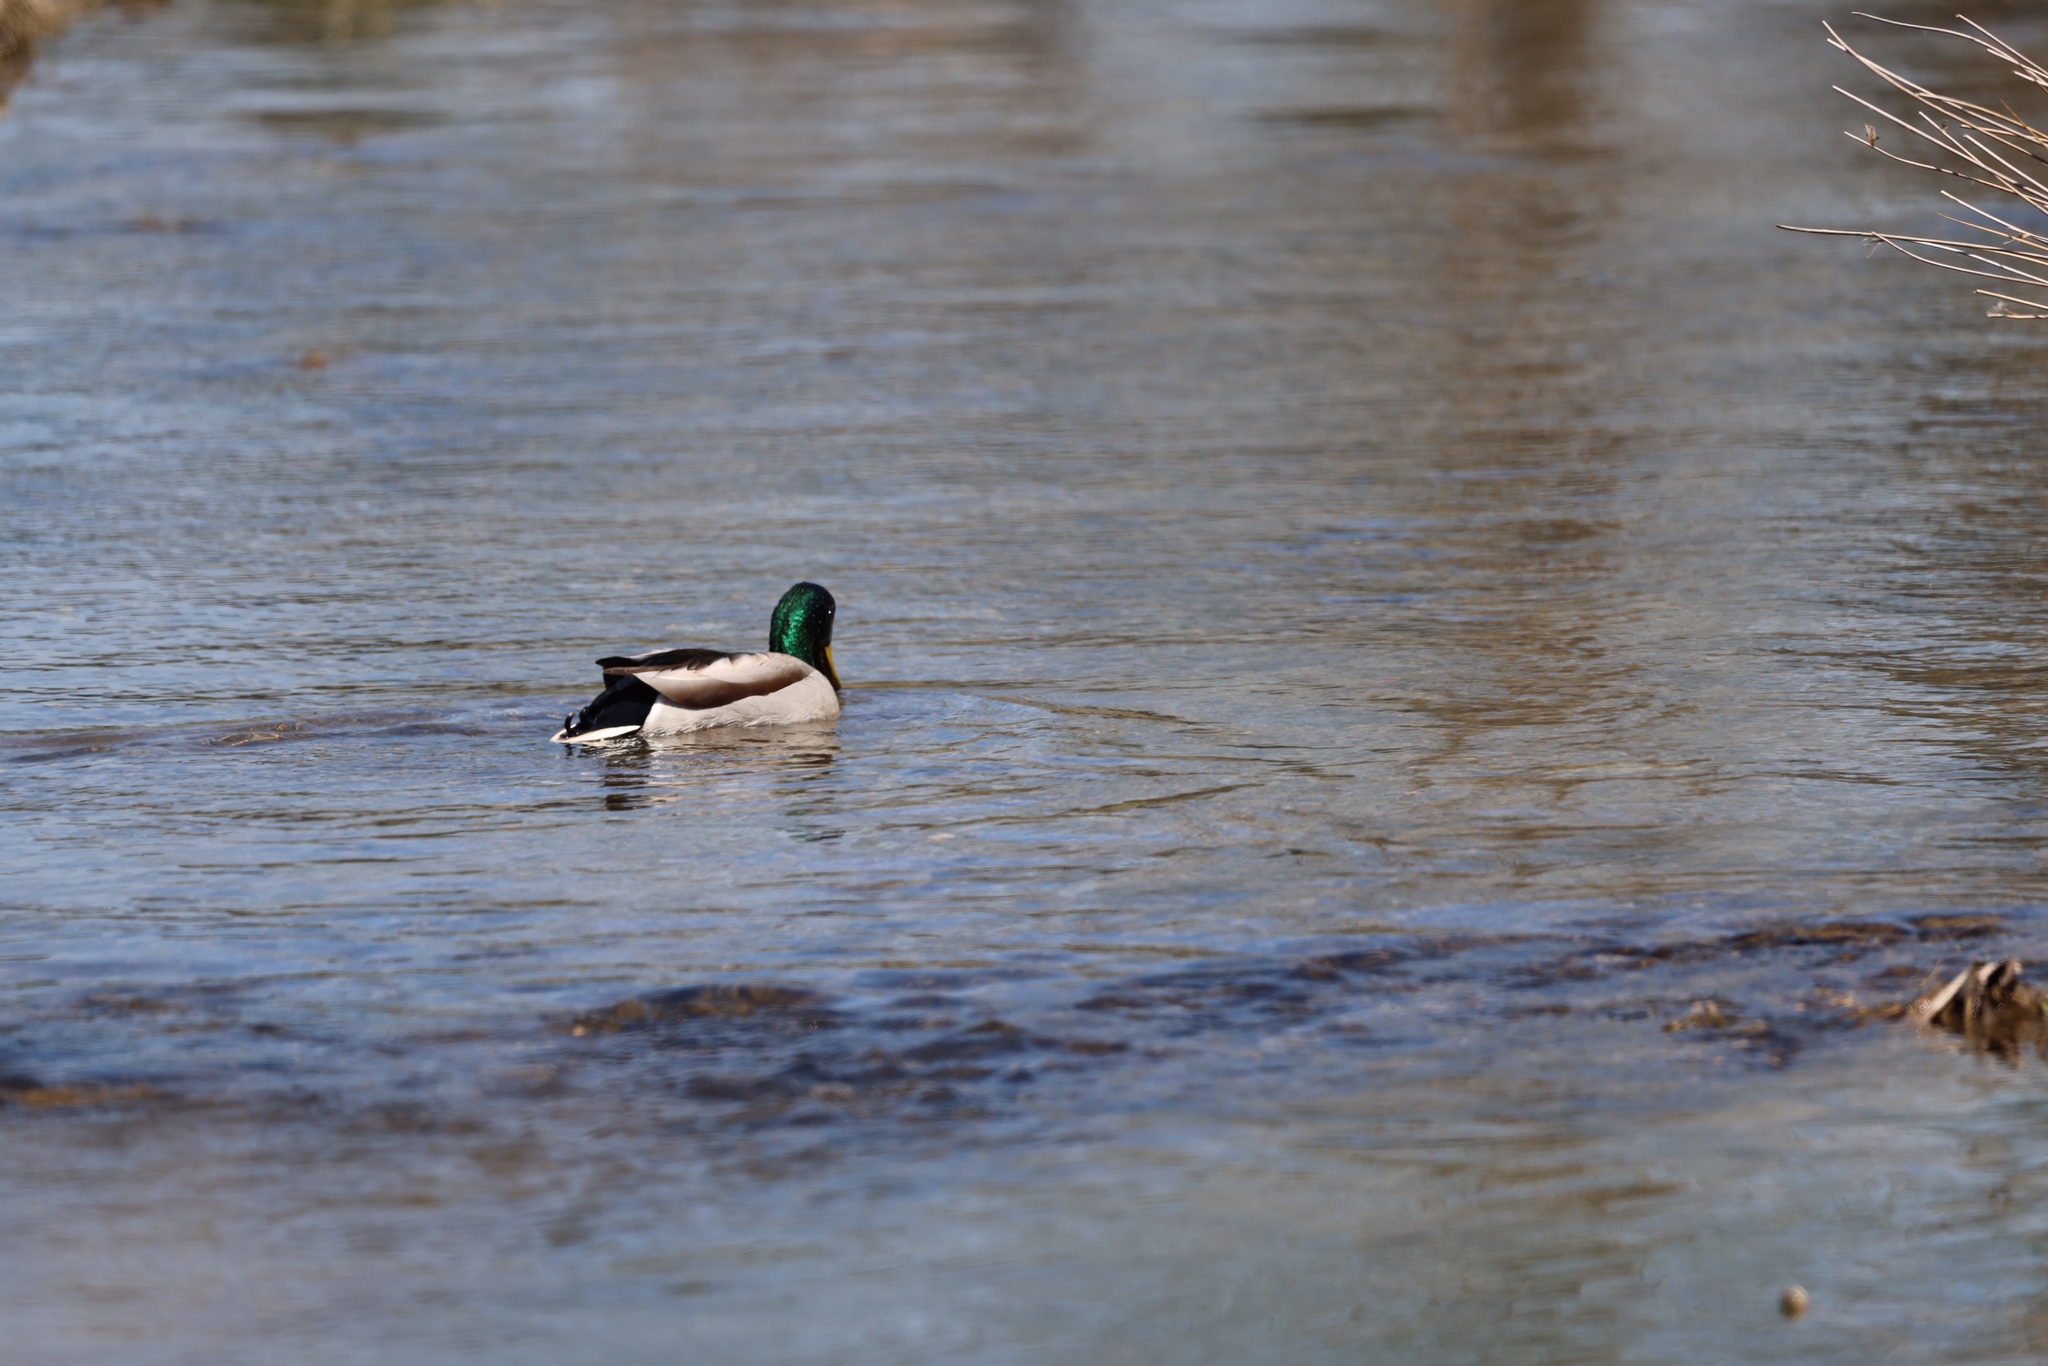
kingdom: Animalia
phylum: Chordata
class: Aves
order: Anseriformes
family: Anatidae
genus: Anas
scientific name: Anas platyrhynchos
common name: Mallard
